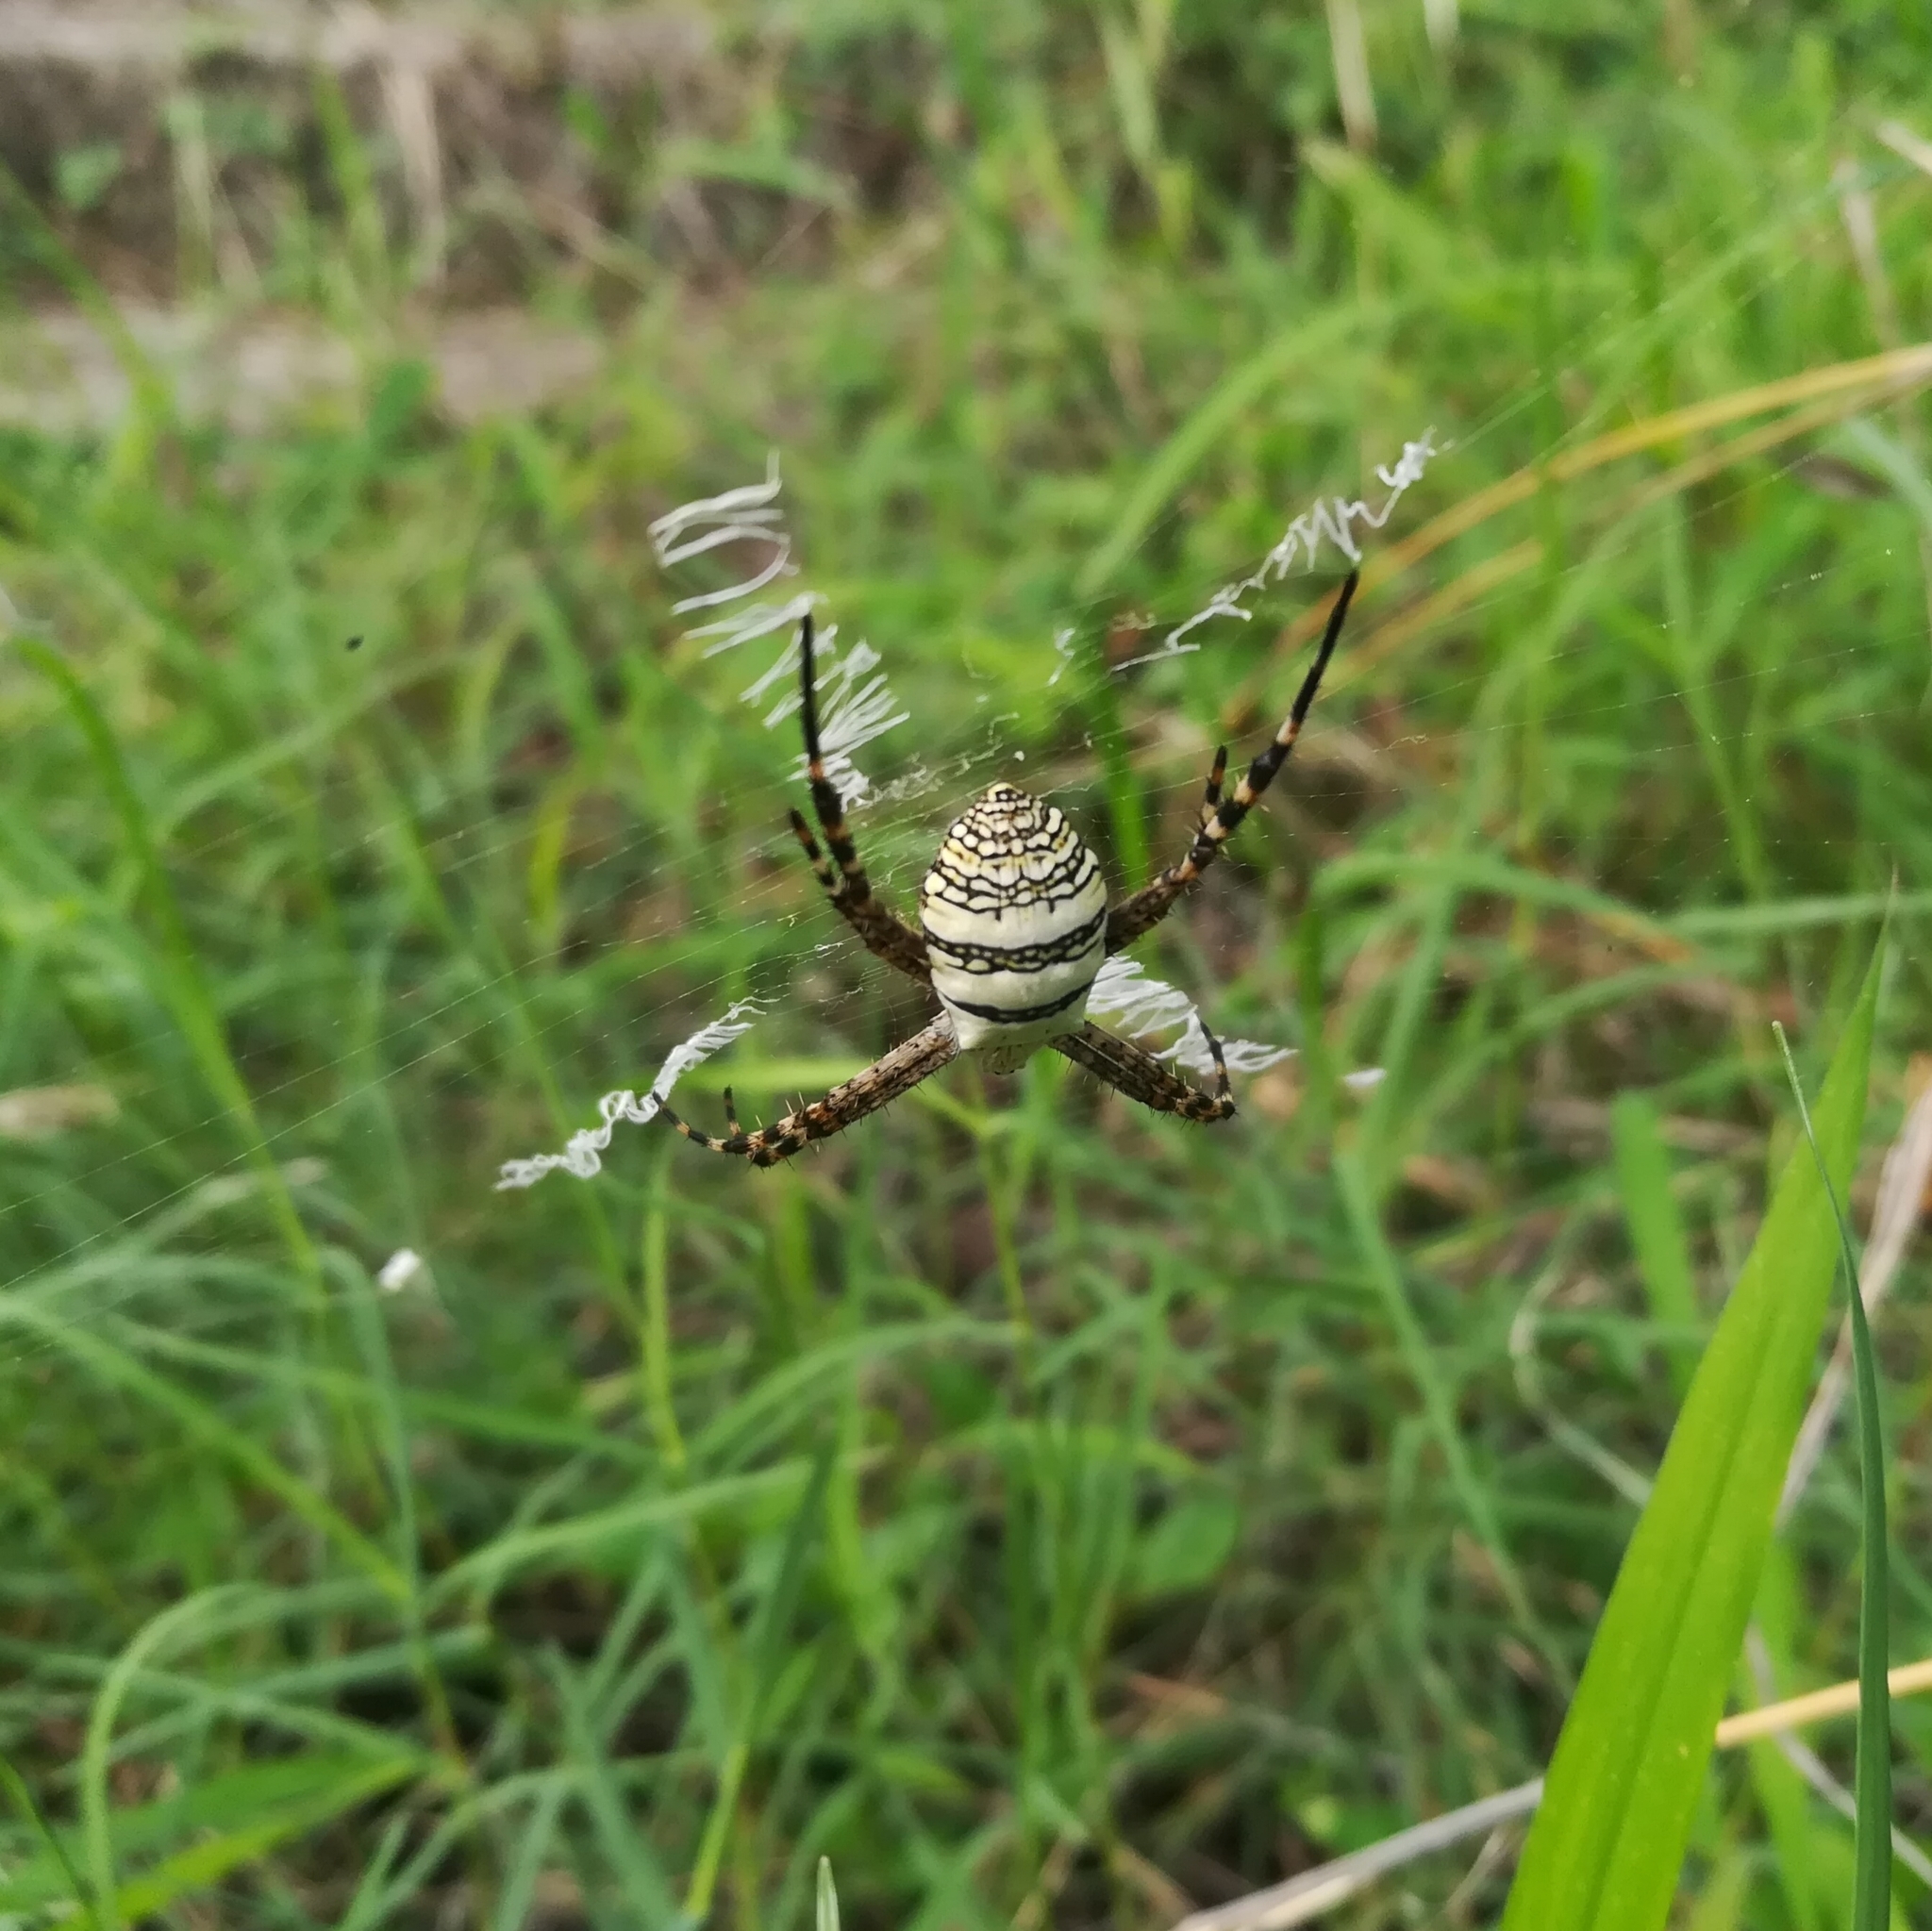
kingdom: Animalia
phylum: Arthropoda
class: Arachnida
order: Araneae
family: Araneidae
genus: Argiope
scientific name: Argiope aemula
